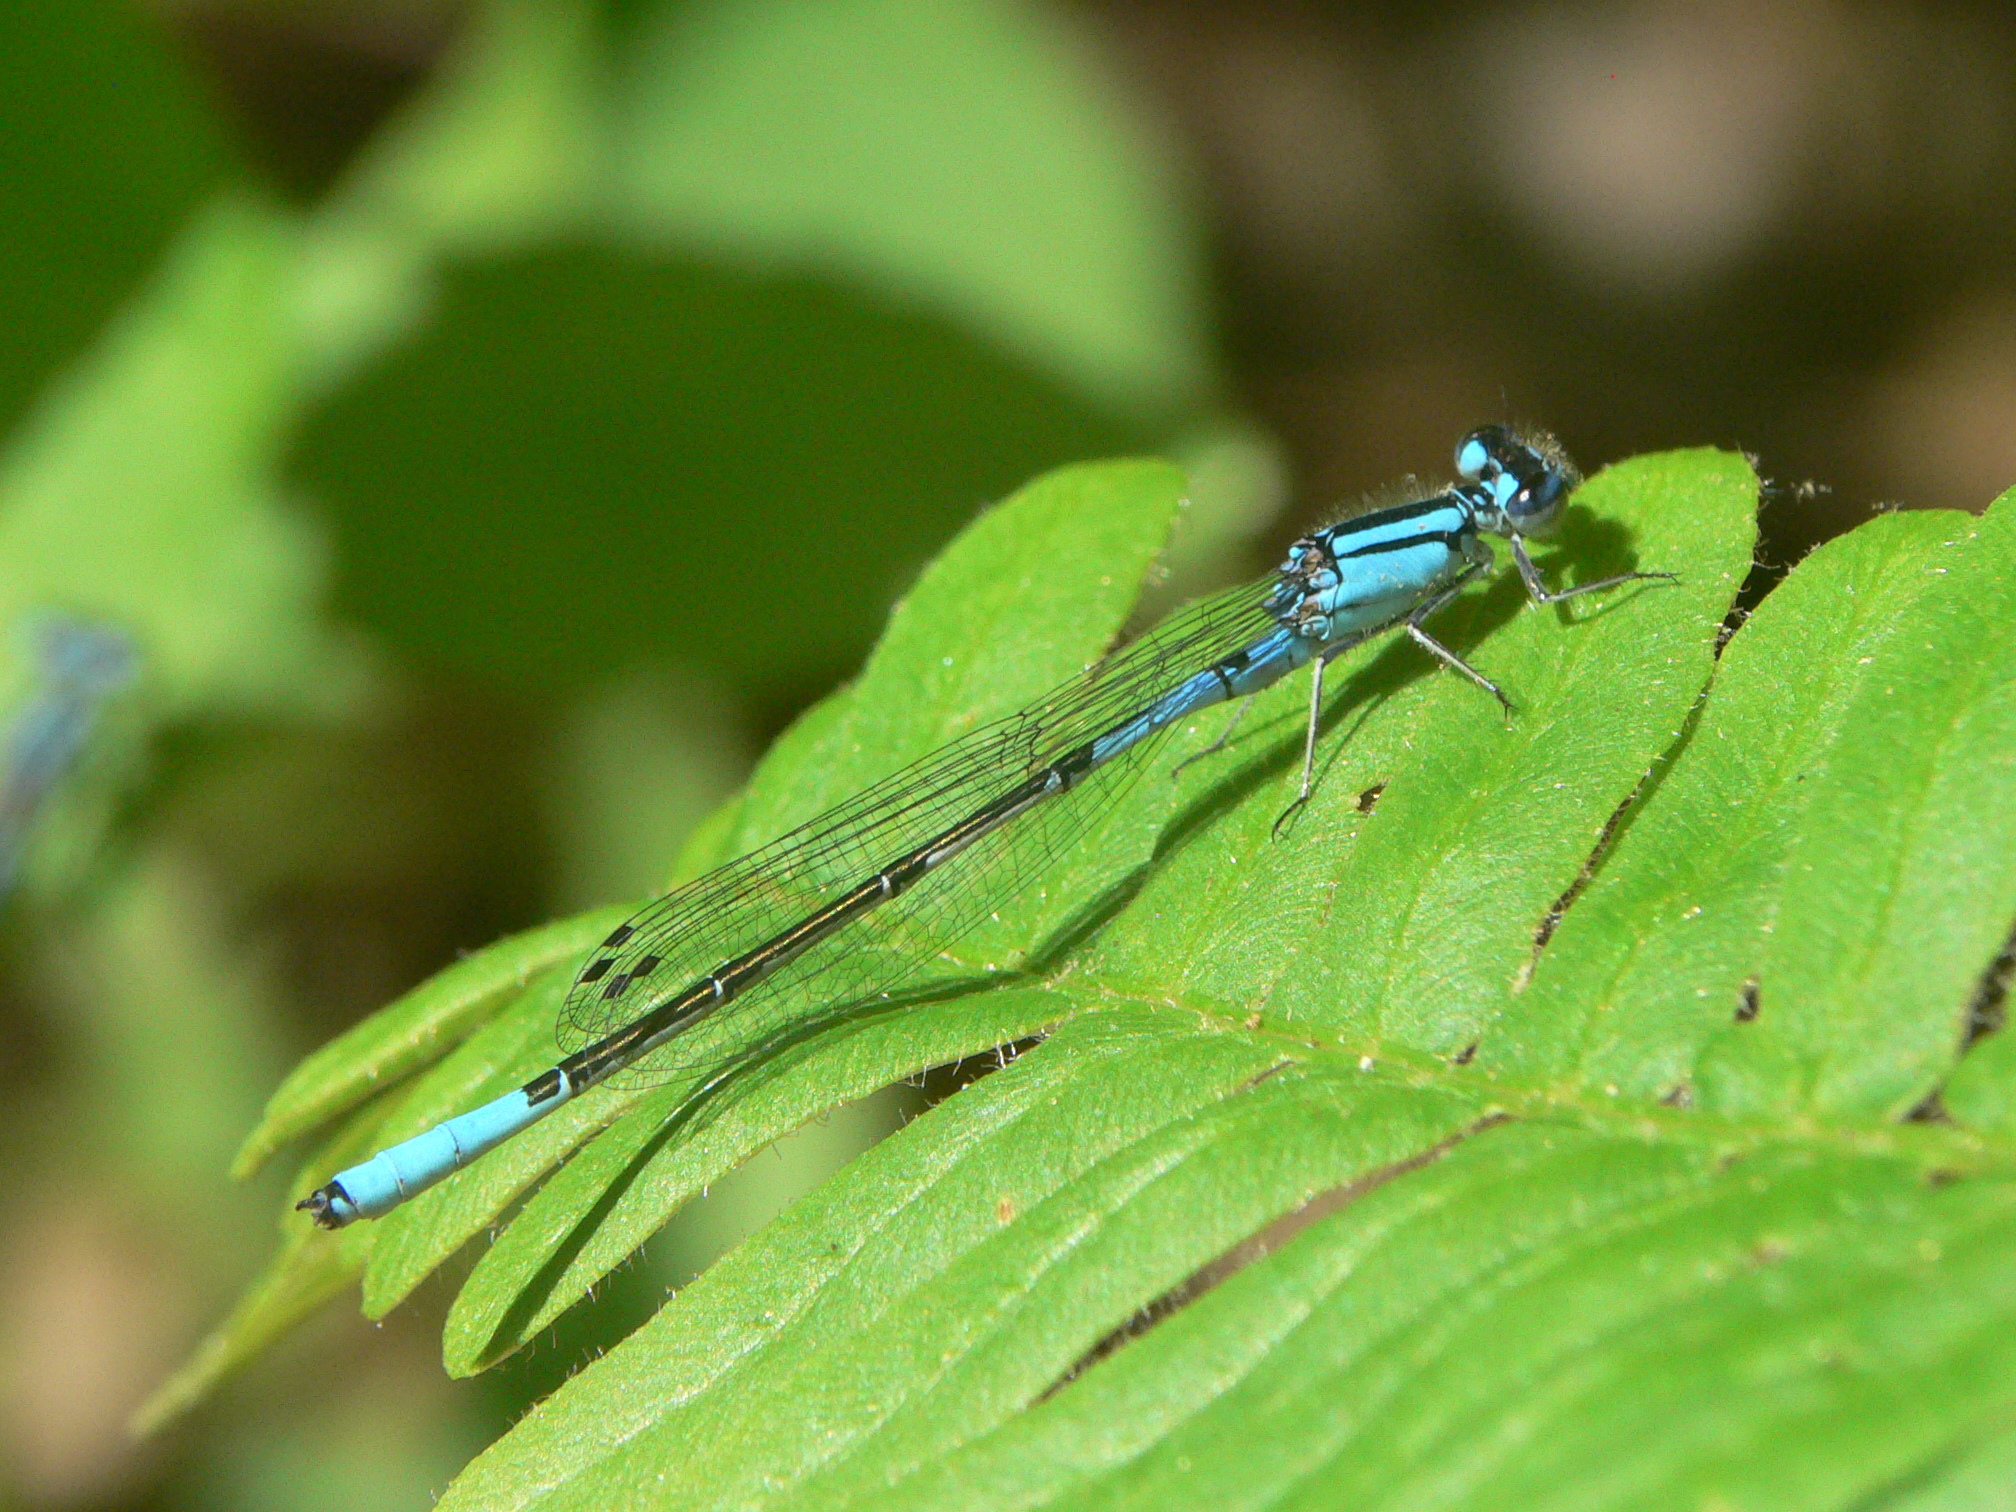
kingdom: Animalia
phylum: Arthropoda
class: Insecta
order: Odonata
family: Coenagrionidae
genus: Enallagma
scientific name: Enallagma aspersum
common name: Azure bluet
